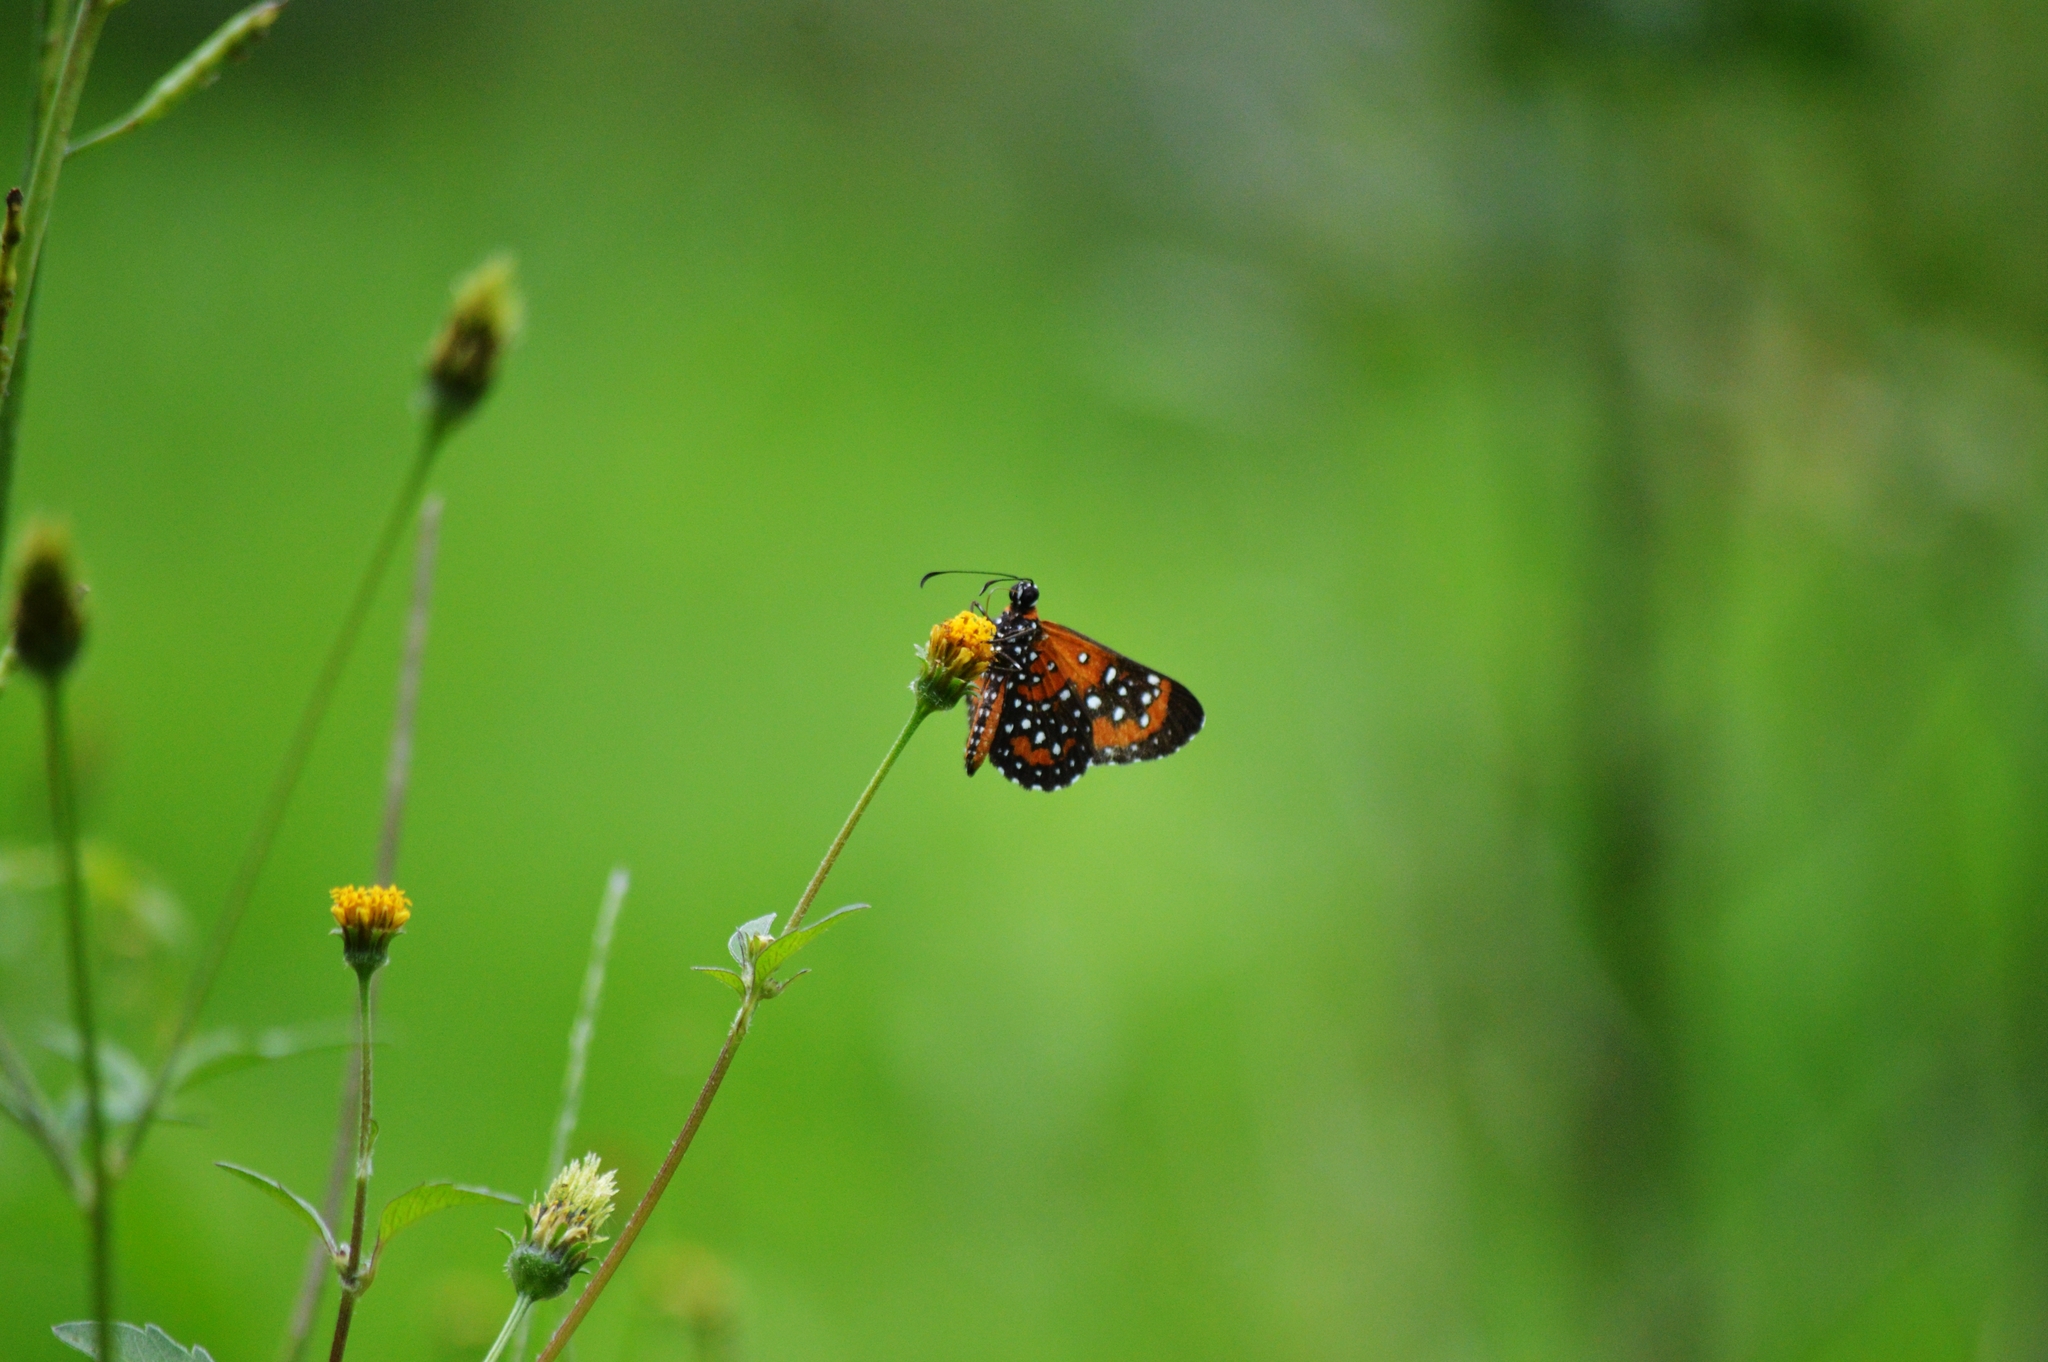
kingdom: Animalia
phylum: Arthropoda
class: Insecta
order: Lepidoptera
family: Riodinidae
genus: Stalachtis
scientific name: Stalachtis phlegia
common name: Dotted prince
